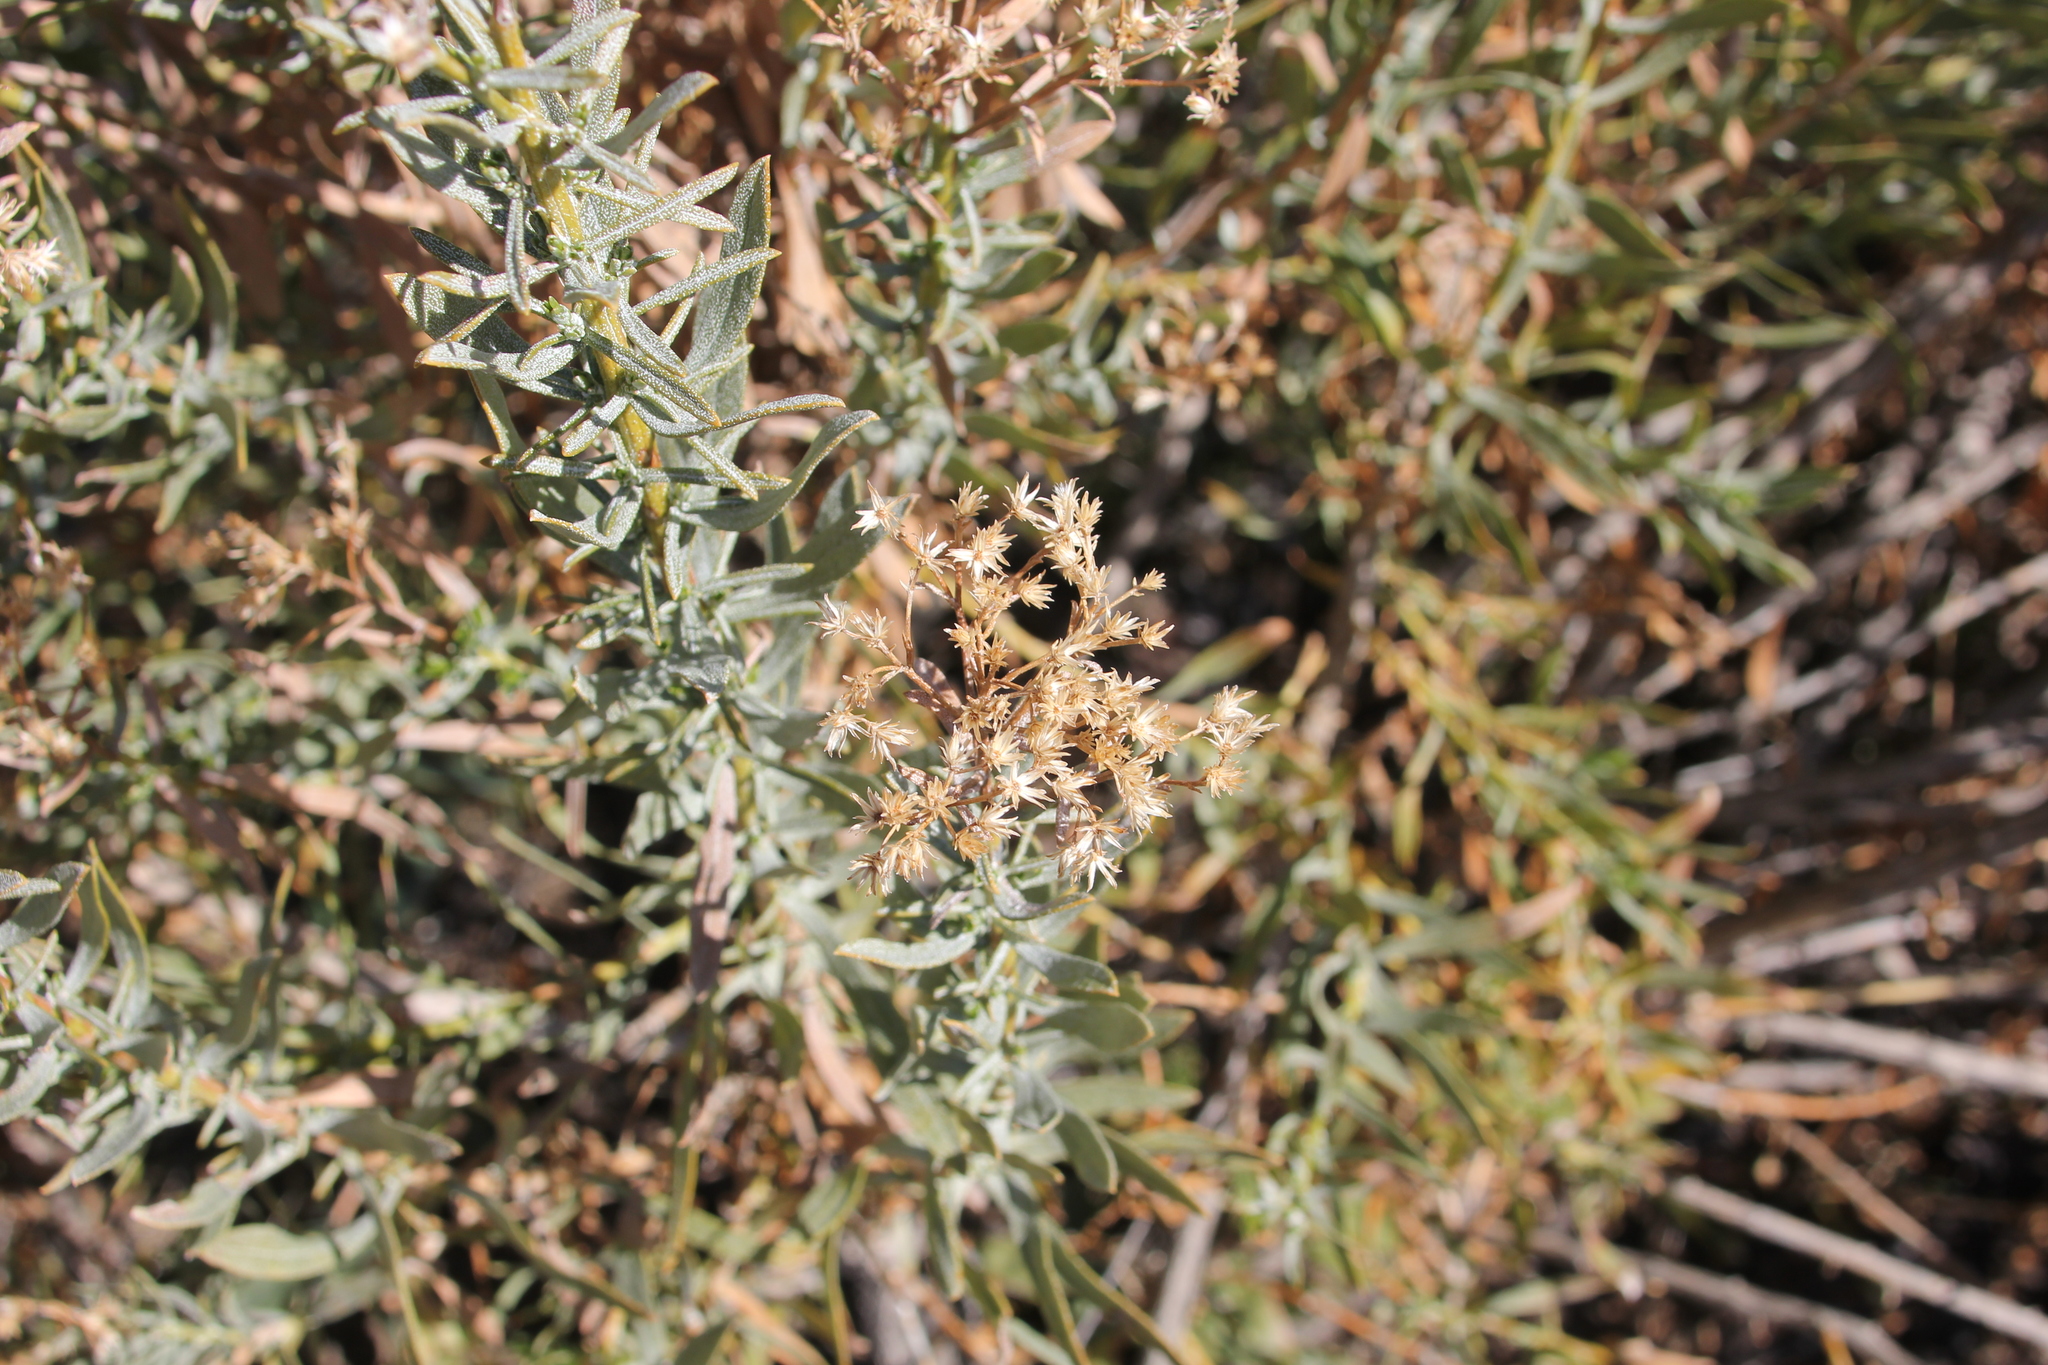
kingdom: Plantae
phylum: Tracheophyta
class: Magnoliopsida
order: Asterales
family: Asteraceae
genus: Ericameria
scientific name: Ericameria parishii
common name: Parish's goldenbush
